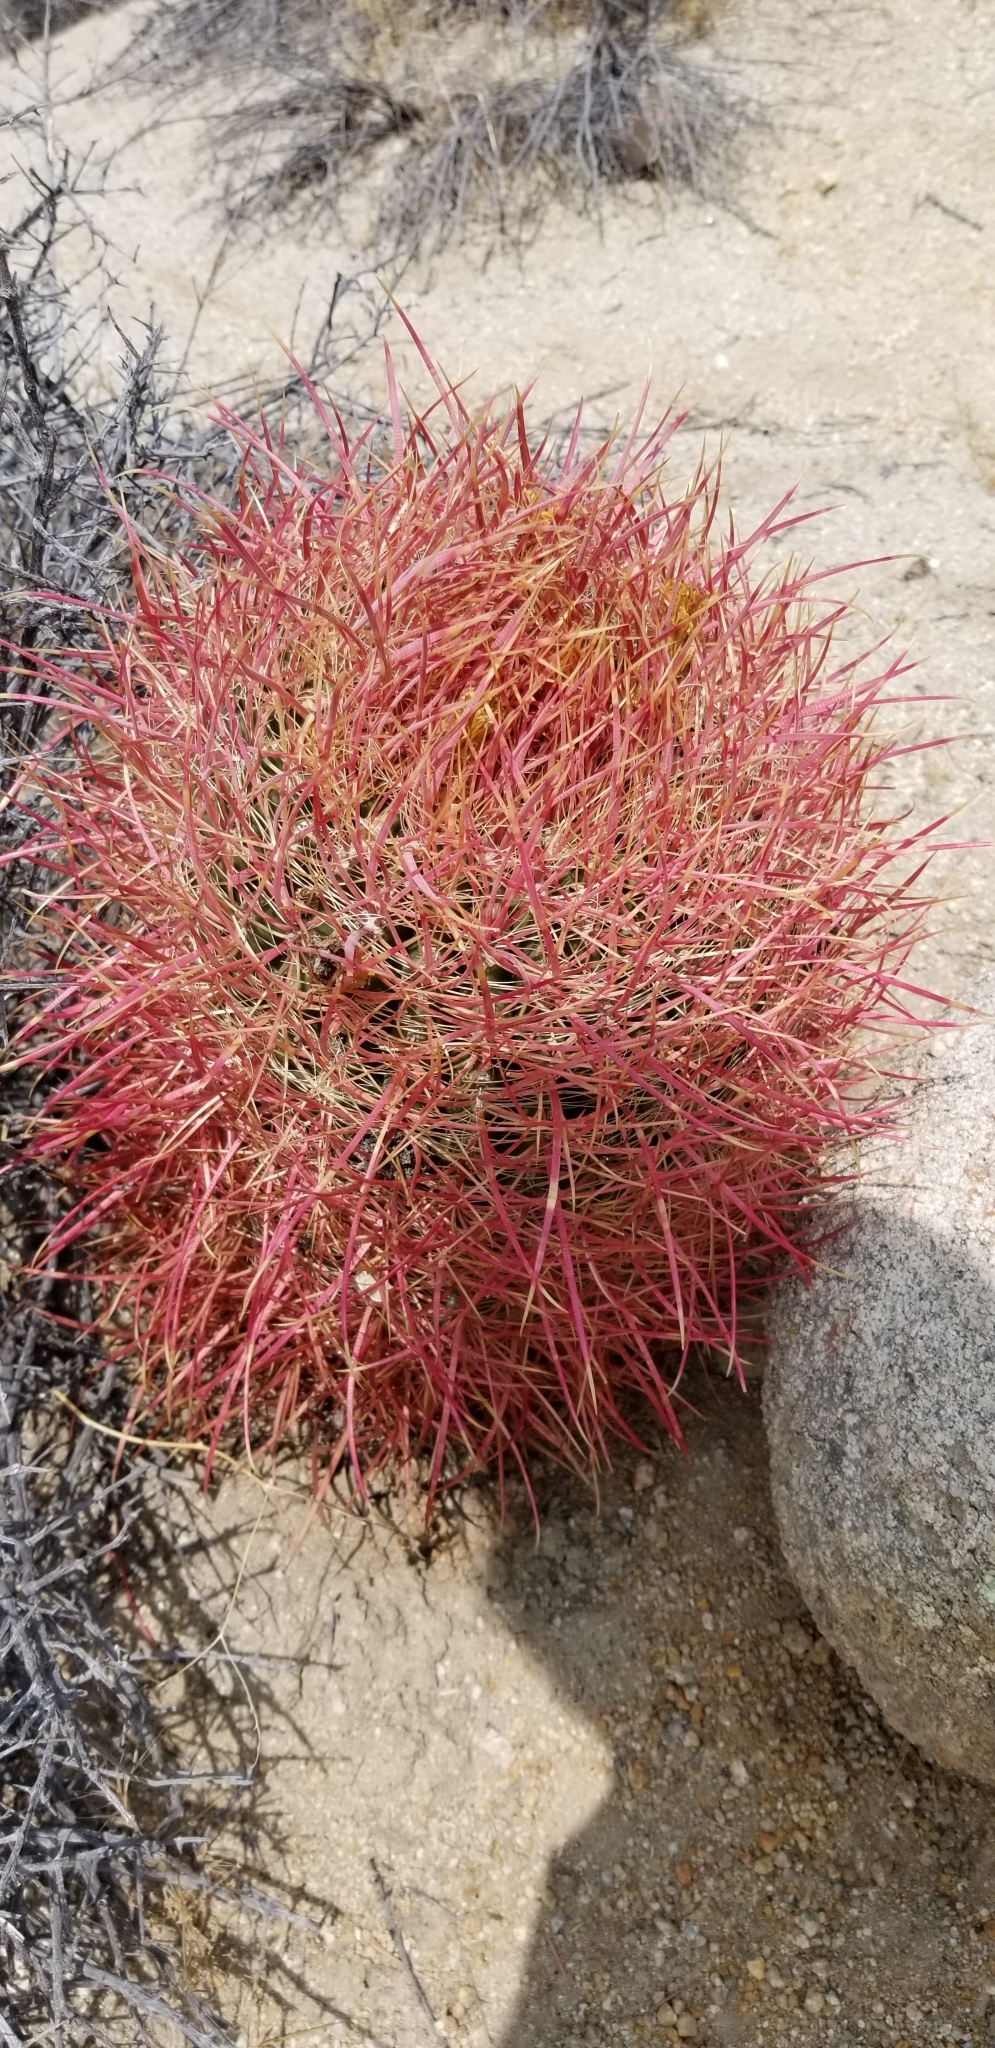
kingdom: Plantae
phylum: Tracheophyta
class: Magnoliopsida
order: Caryophyllales
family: Cactaceae
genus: Ferocactus
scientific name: Ferocactus cylindraceus
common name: California barrel cactus
